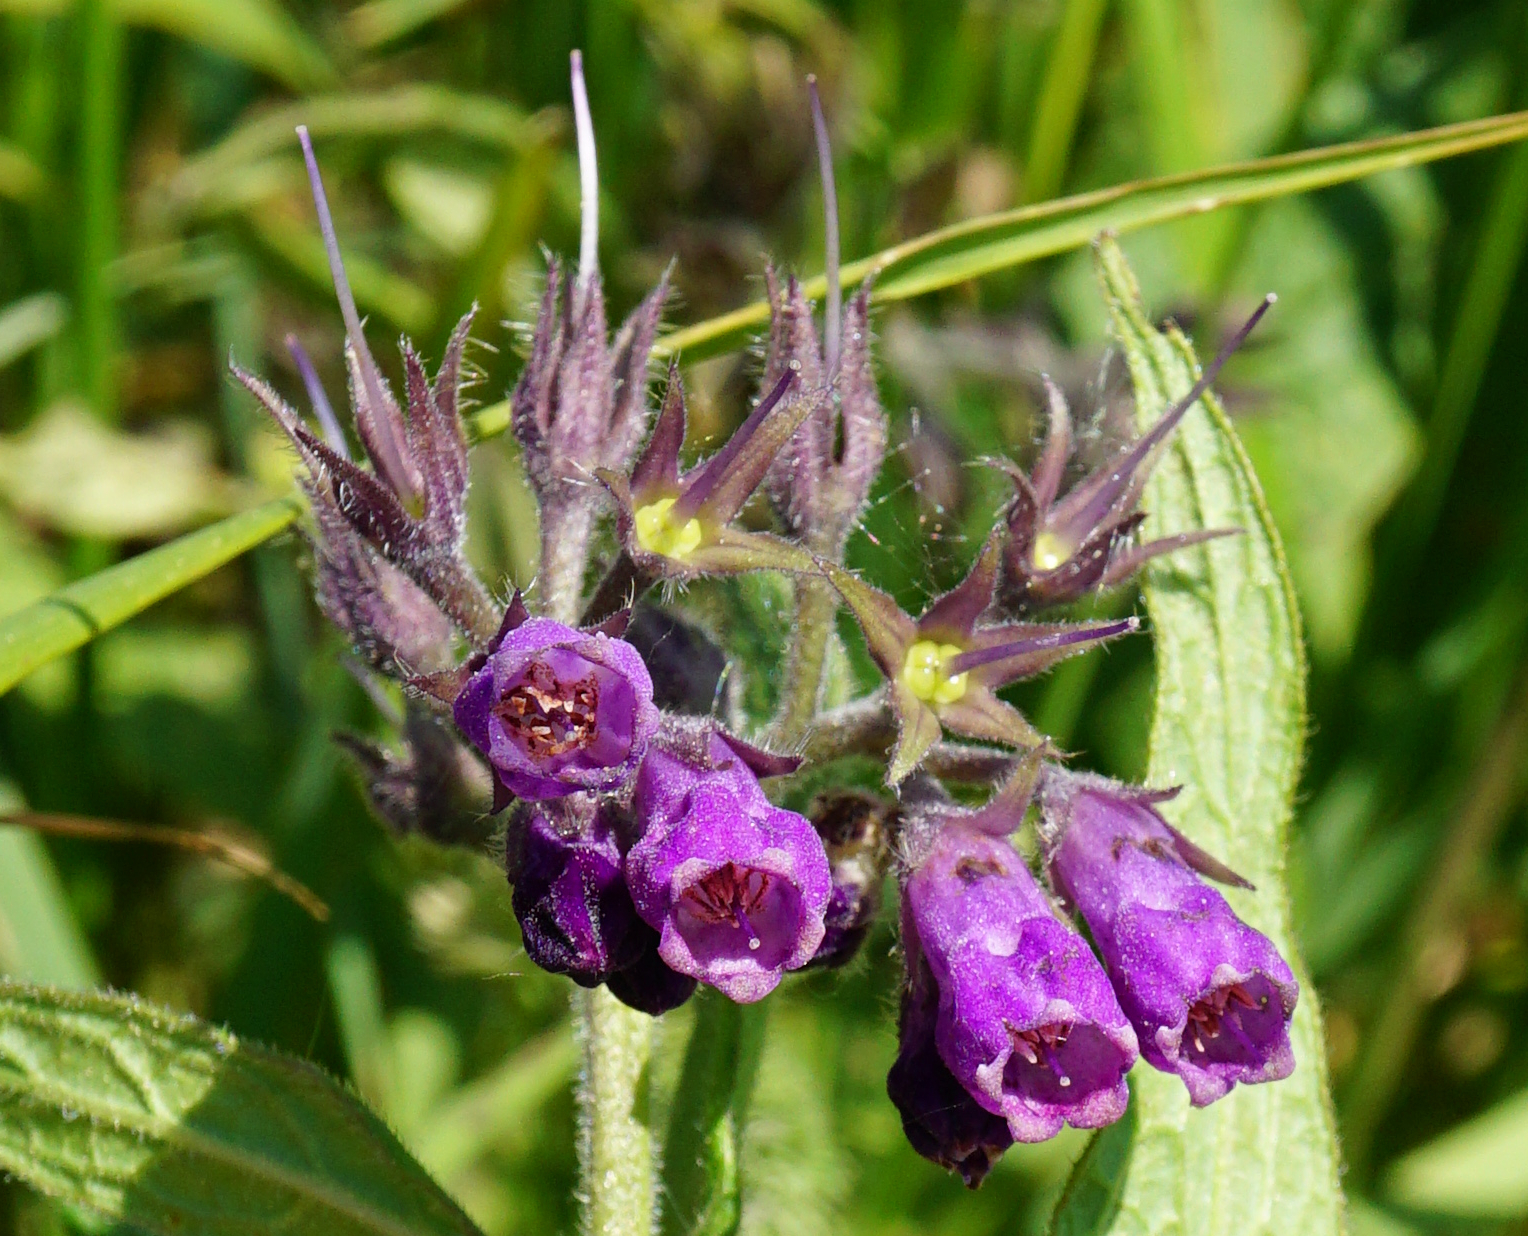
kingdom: Plantae
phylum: Tracheophyta
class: Magnoliopsida
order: Boraginales
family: Boraginaceae
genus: Symphytum
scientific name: Symphytum officinale
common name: Common comfrey
